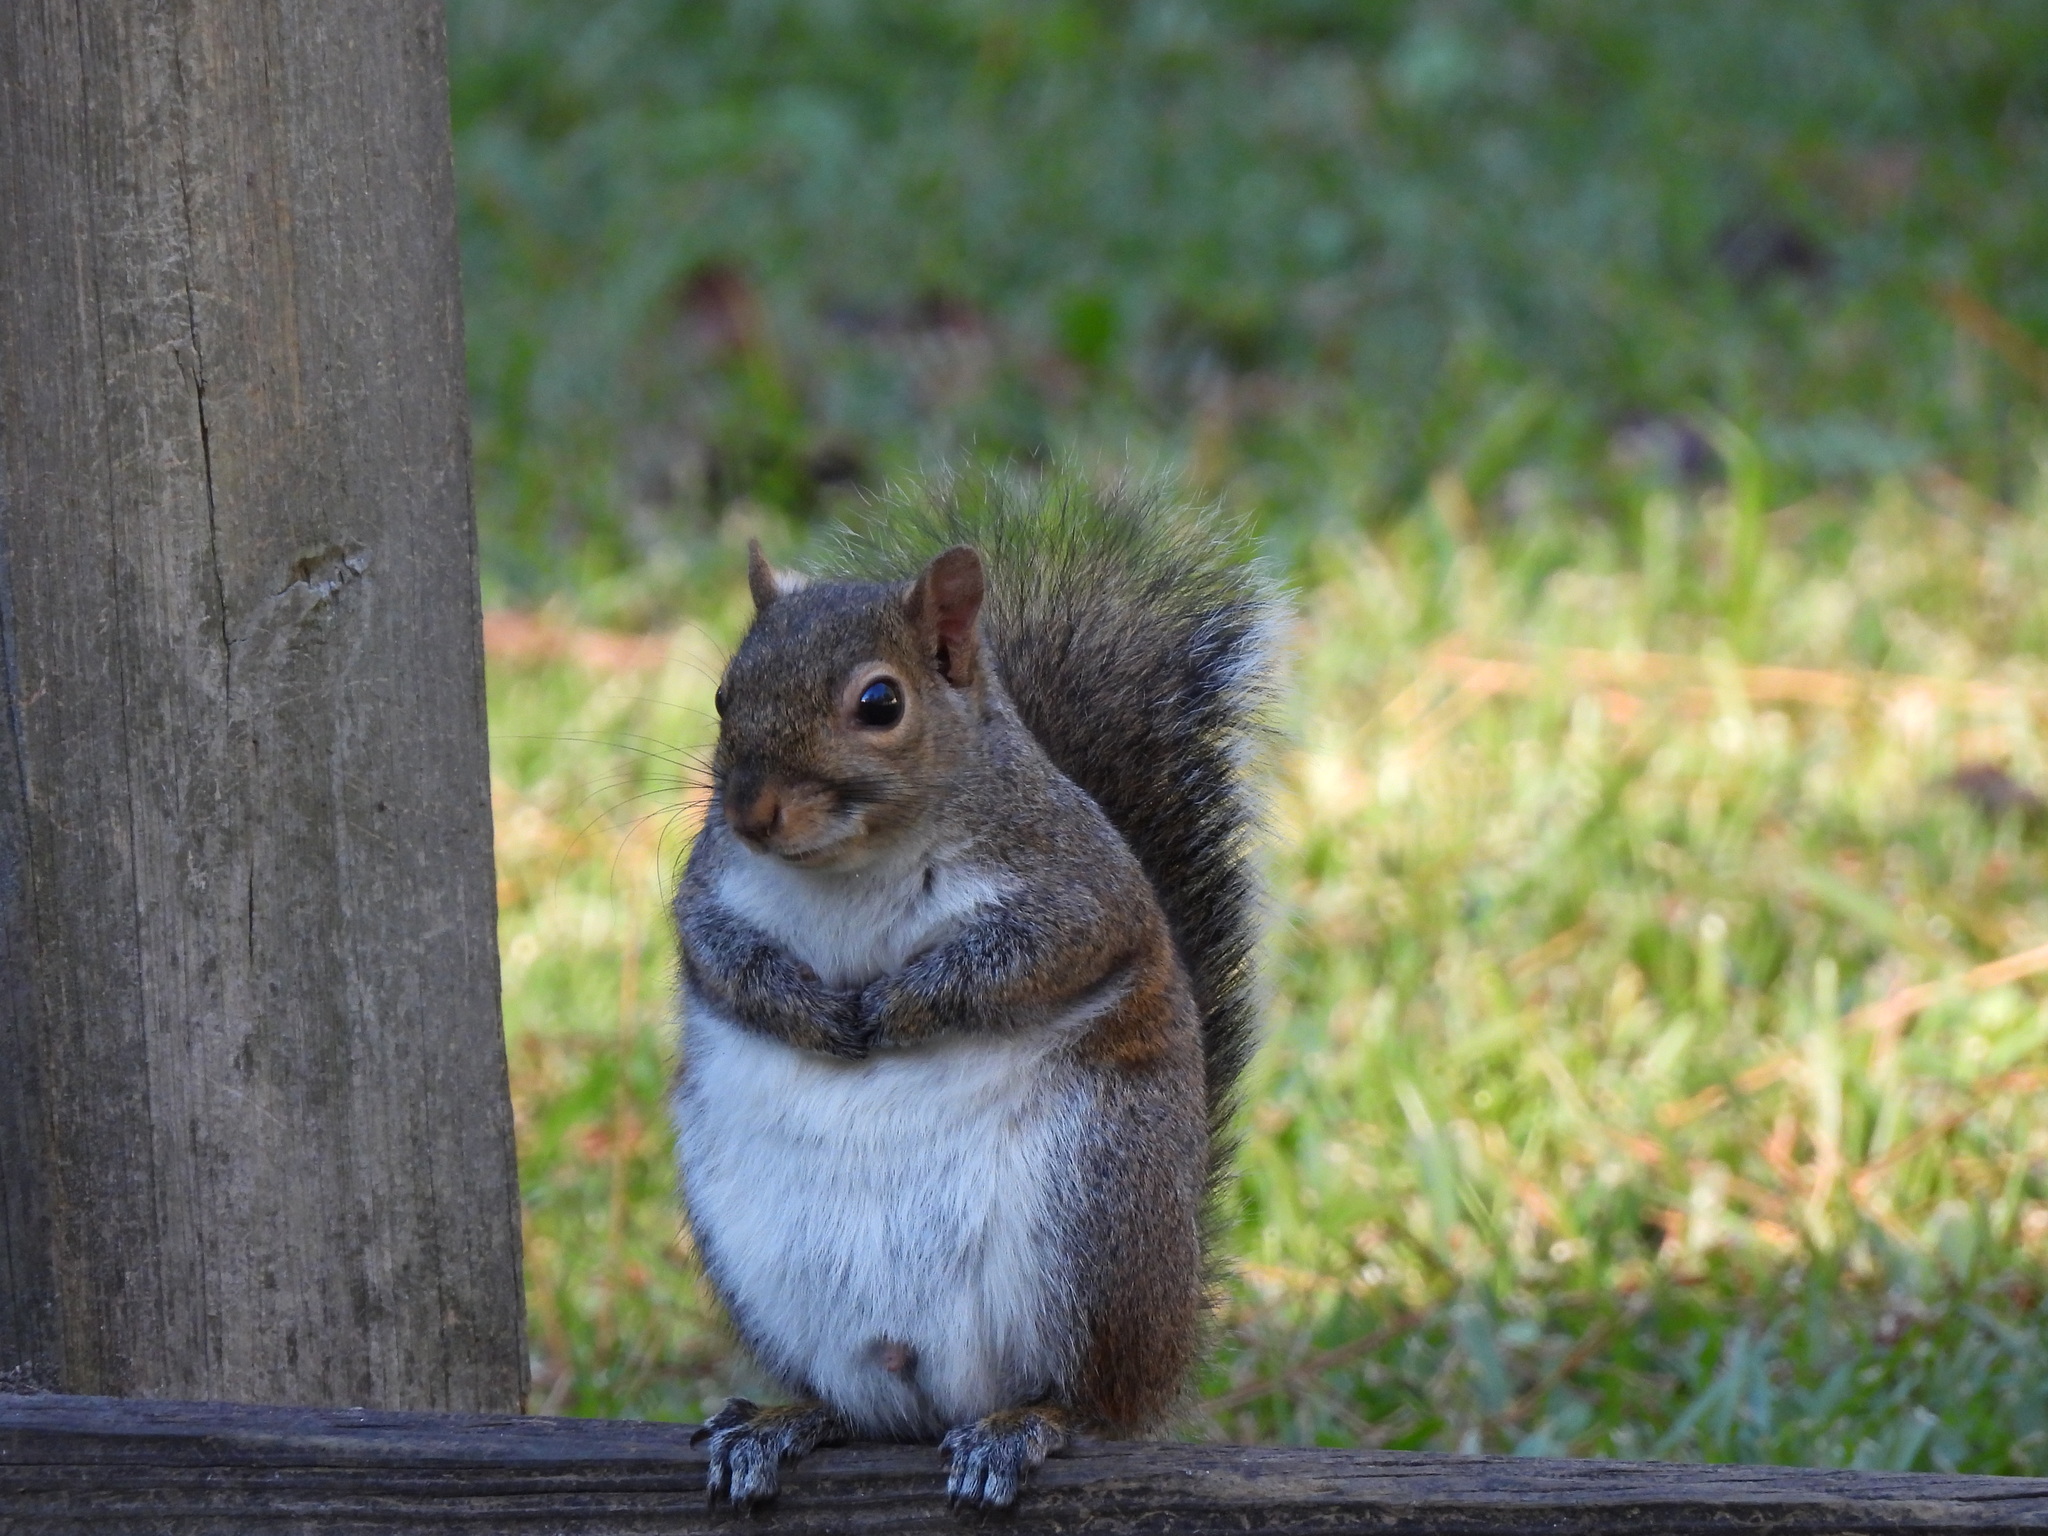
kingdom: Animalia
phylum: Chordata
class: Mammalia
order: Rodentia
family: Sciuridae
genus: Sciurus
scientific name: Sciurus carolinensis
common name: Eastern gray squirrel
